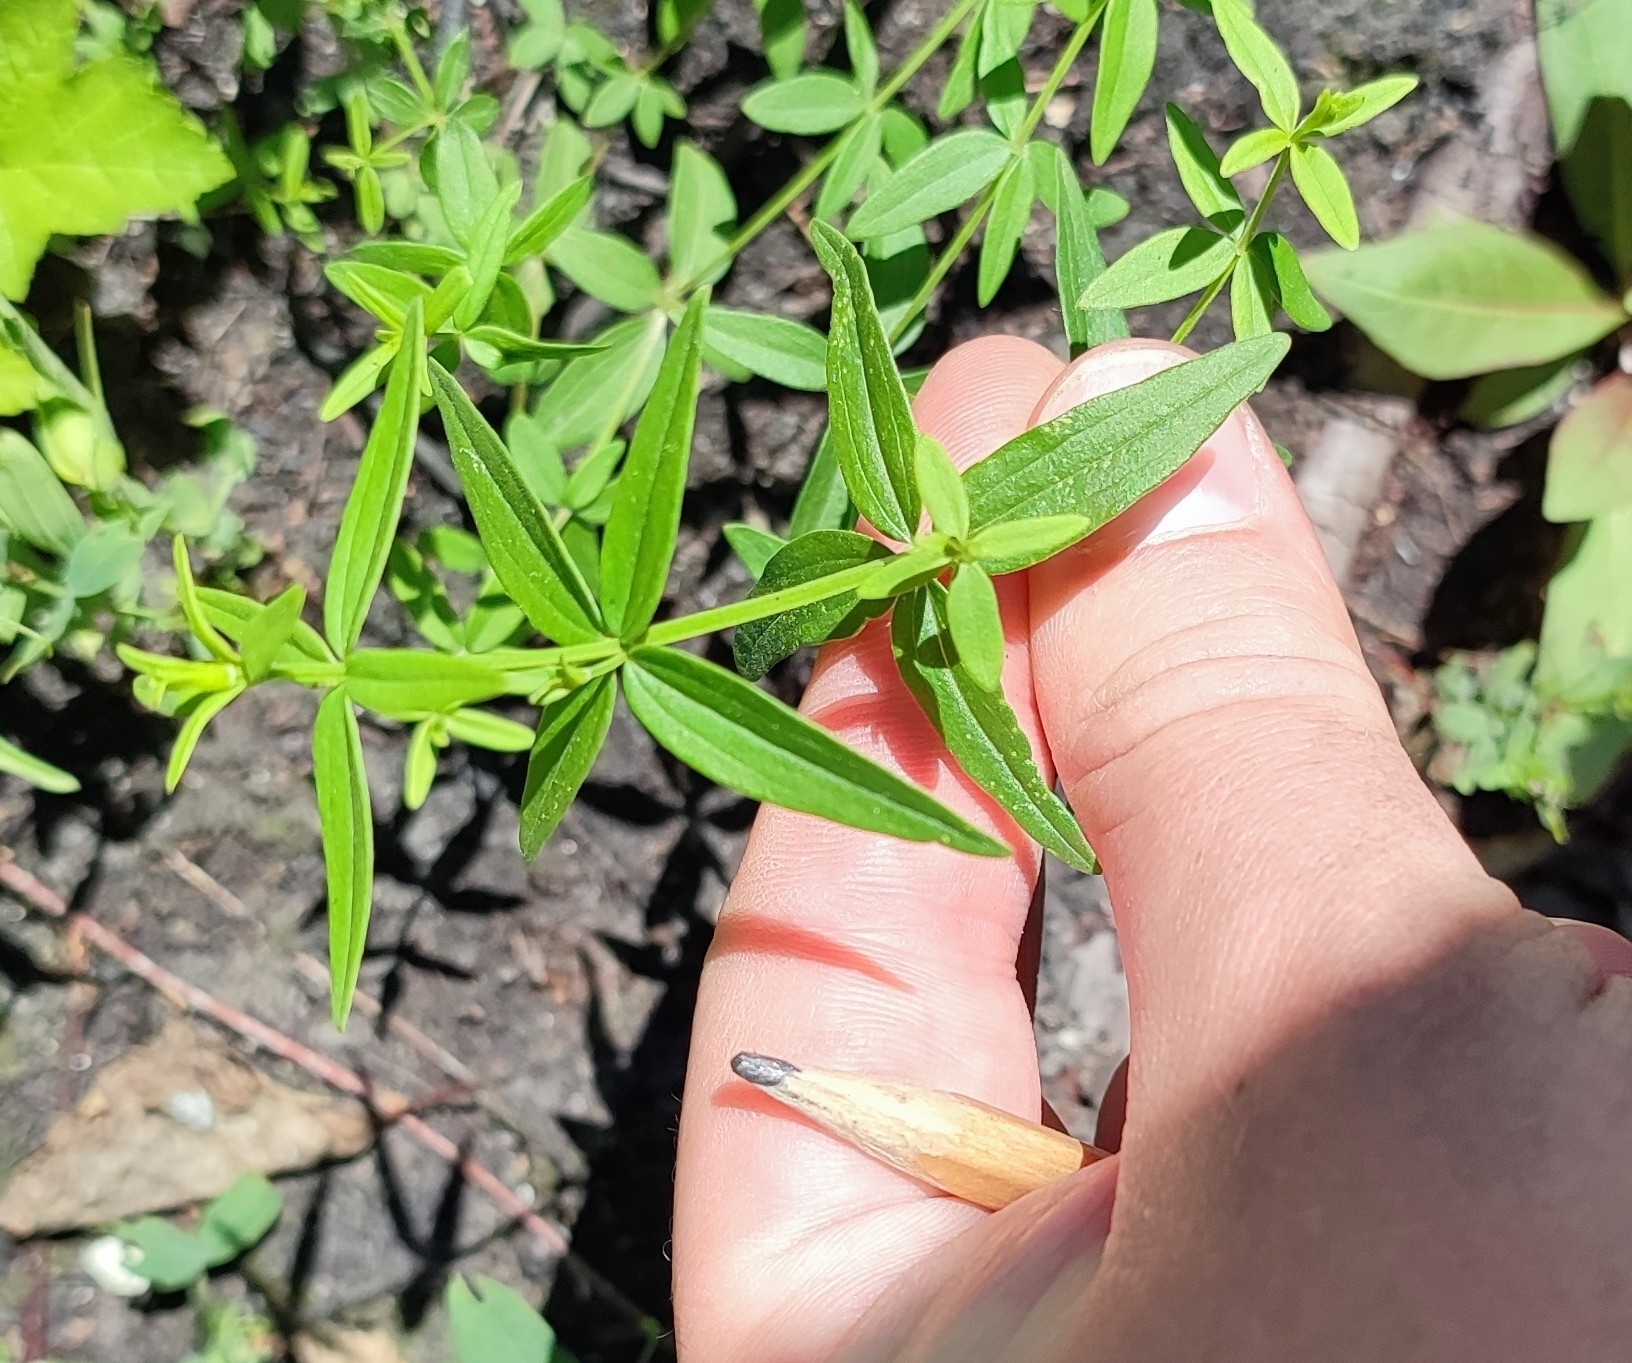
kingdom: Plantae
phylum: Tracheophyta
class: Magnoliopsida
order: Gentianales
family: Rubiaceae
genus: Galium
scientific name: Galium boreale
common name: Northern bedstraw
